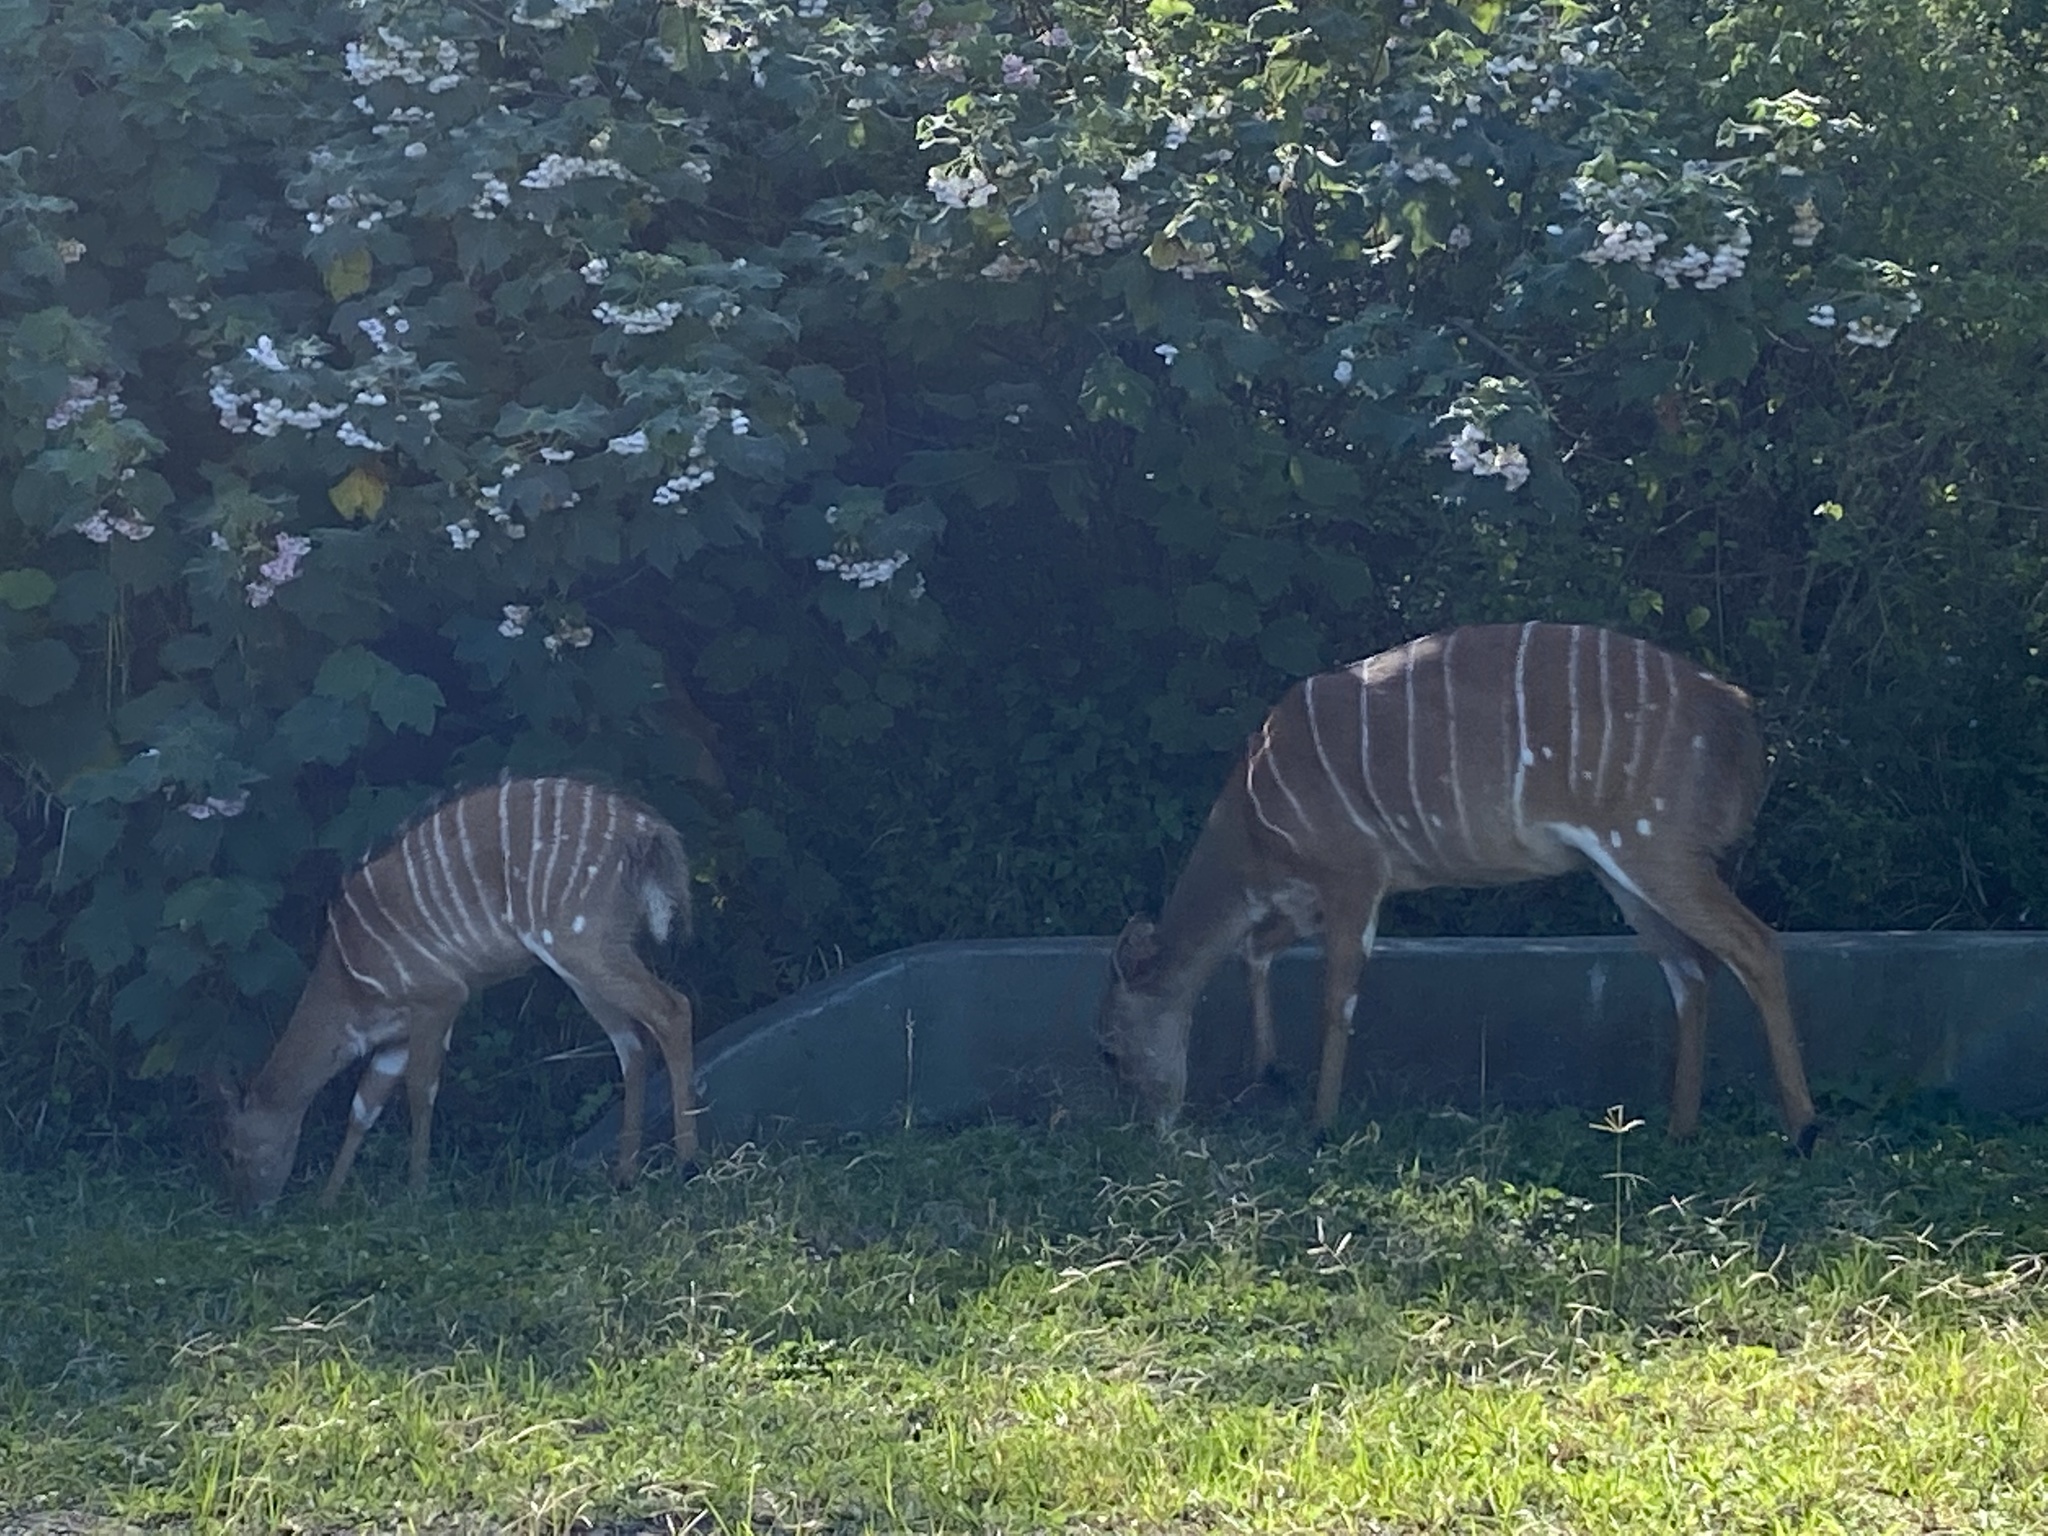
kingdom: Animalia
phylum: Chordata
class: Mammalia
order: Artiodactyla
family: Bovidae
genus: Tragelaphus
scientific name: Tragelaphus angasii
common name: Nyala
